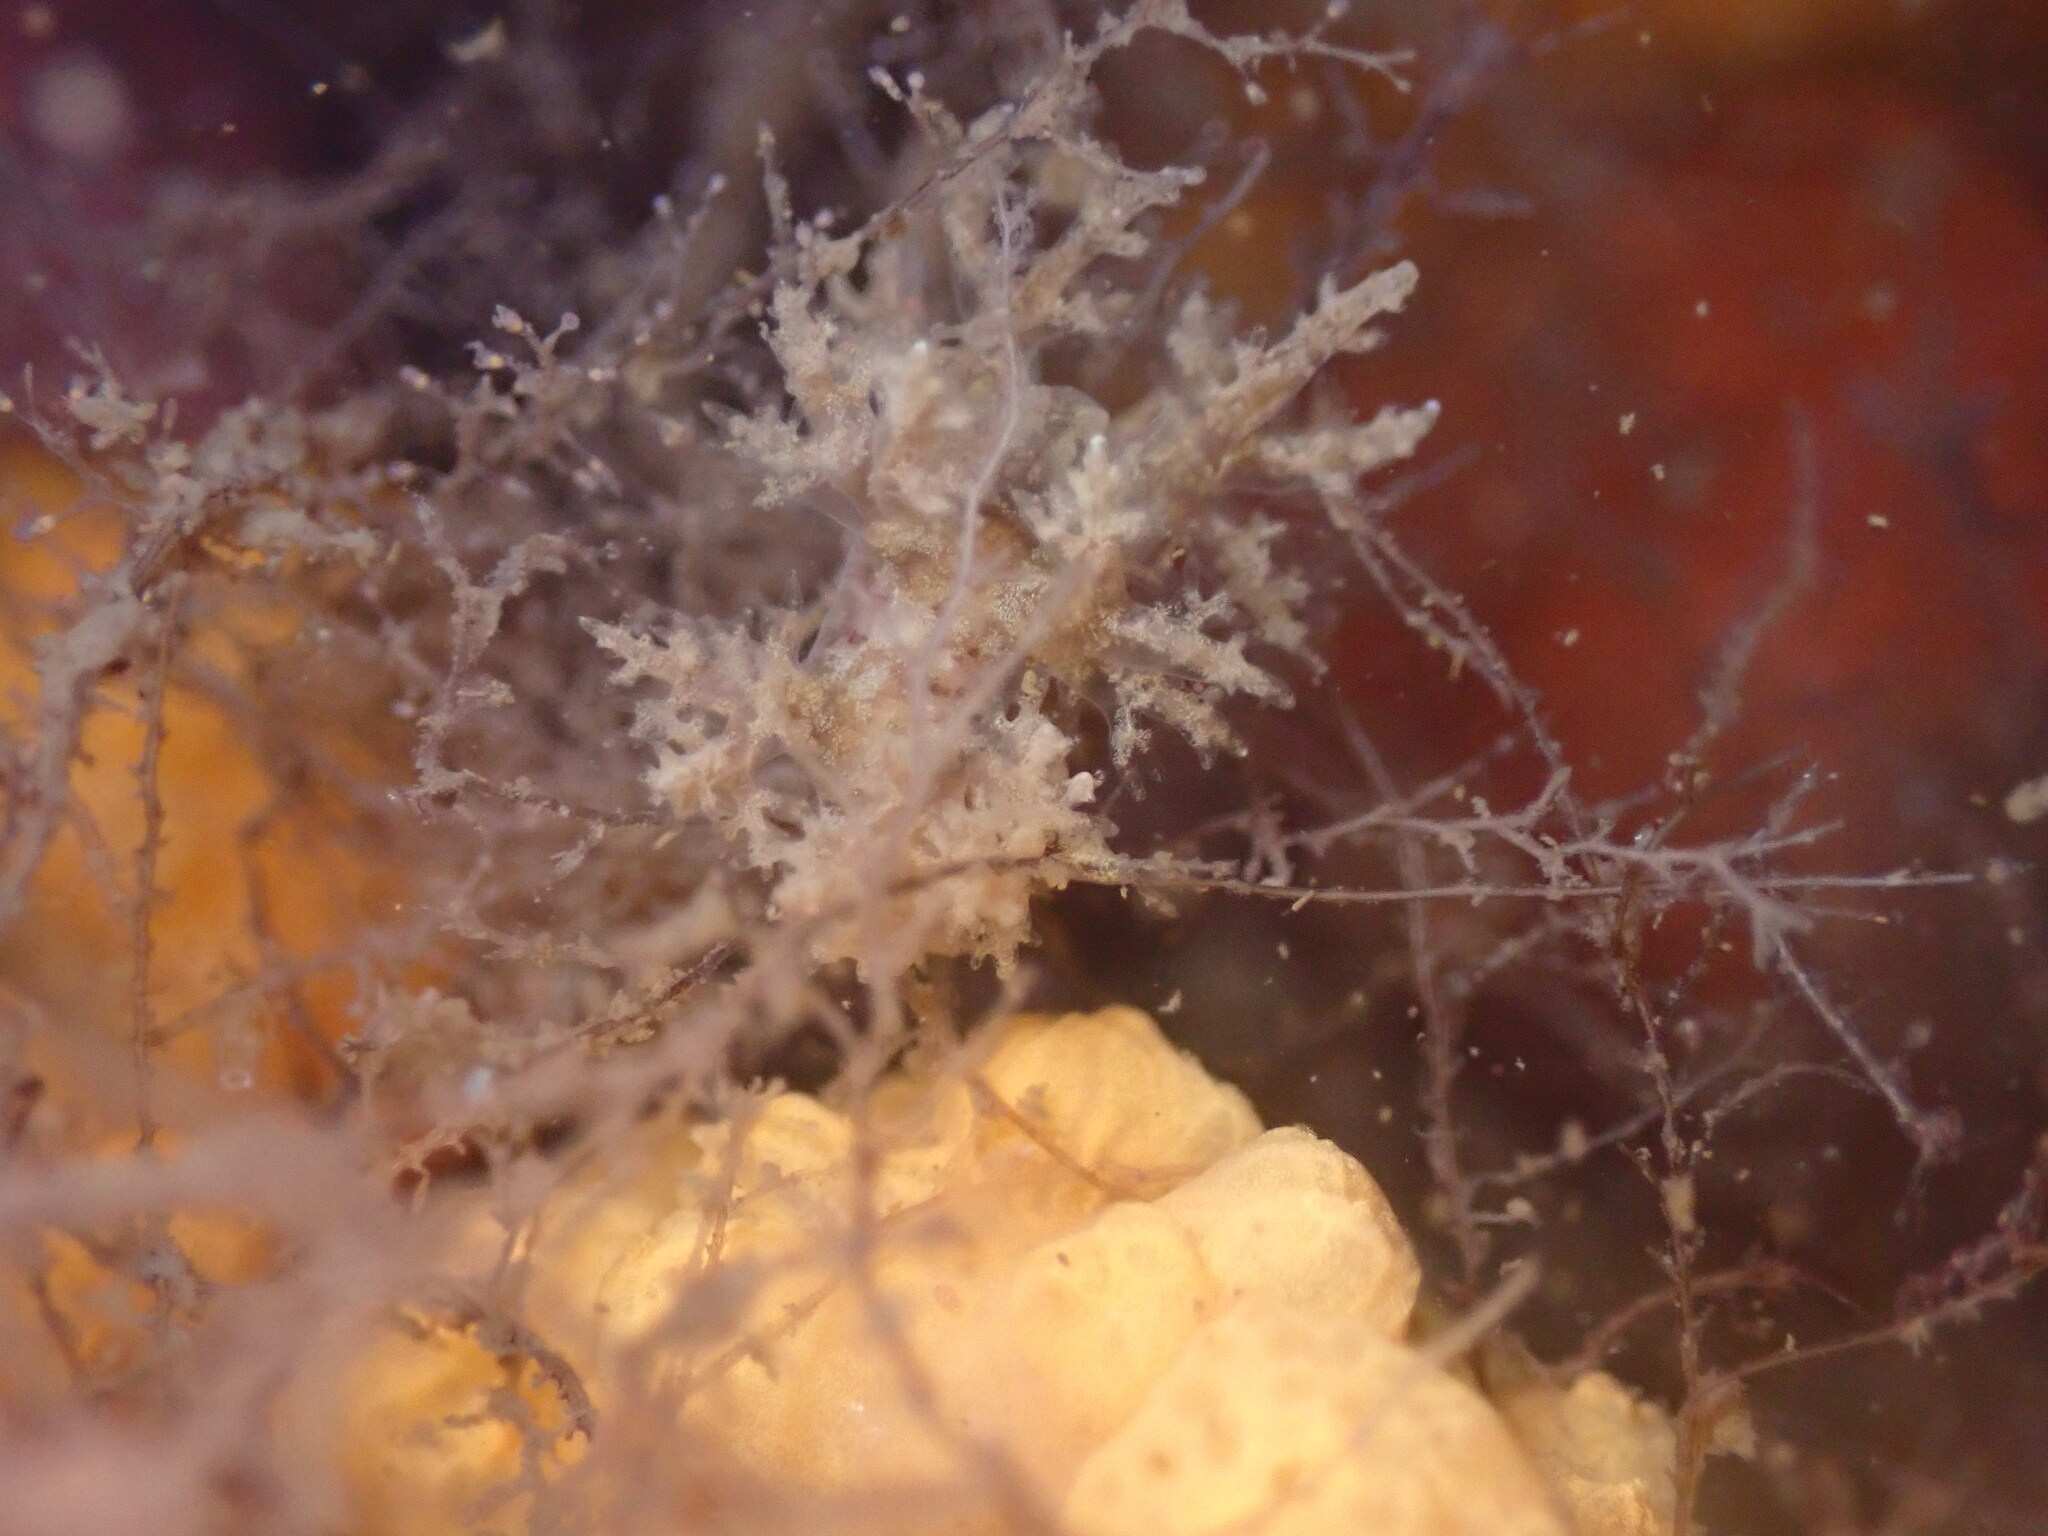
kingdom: Animalia
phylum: Mollusca
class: Gastropoda
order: Nudibranchia
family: Dendronotidae
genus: Dendronotus
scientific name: Dendronotus venustus
